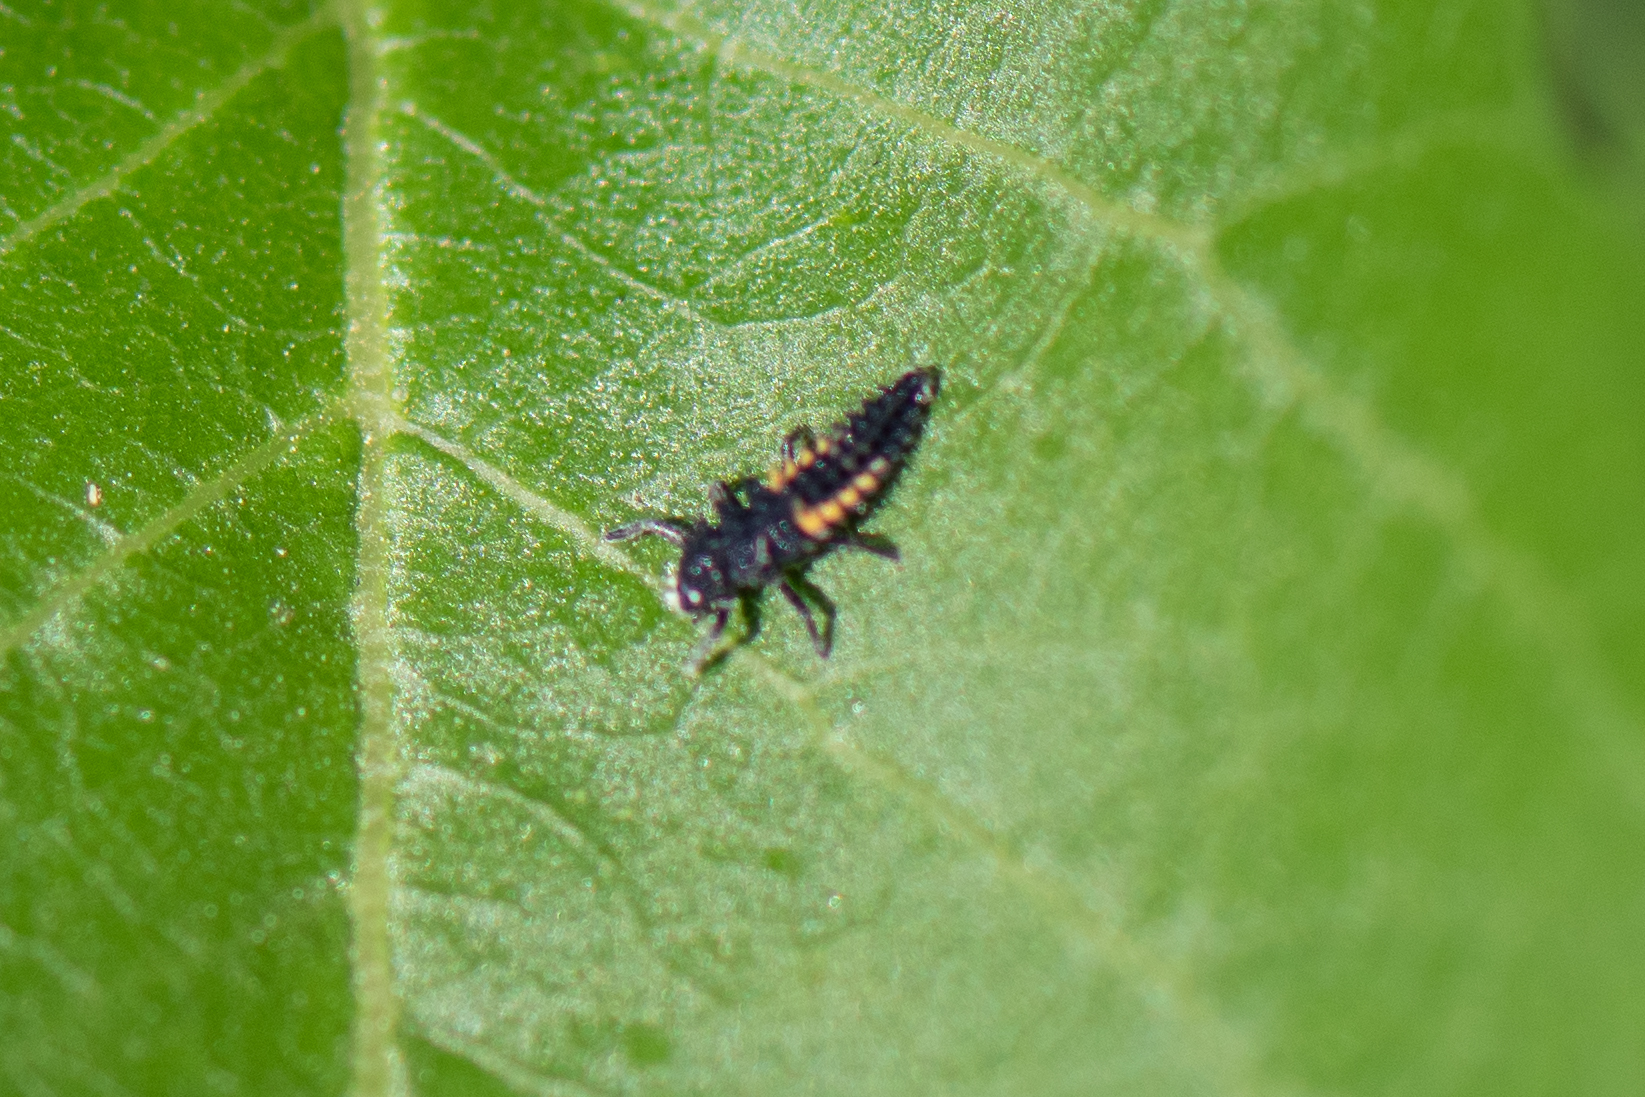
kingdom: Animalia
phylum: Arthropoda
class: Insecta
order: Coleoptera
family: Coccinellidae
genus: Harmonia
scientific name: Harmonia axyridis
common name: Harlequin ladybird
